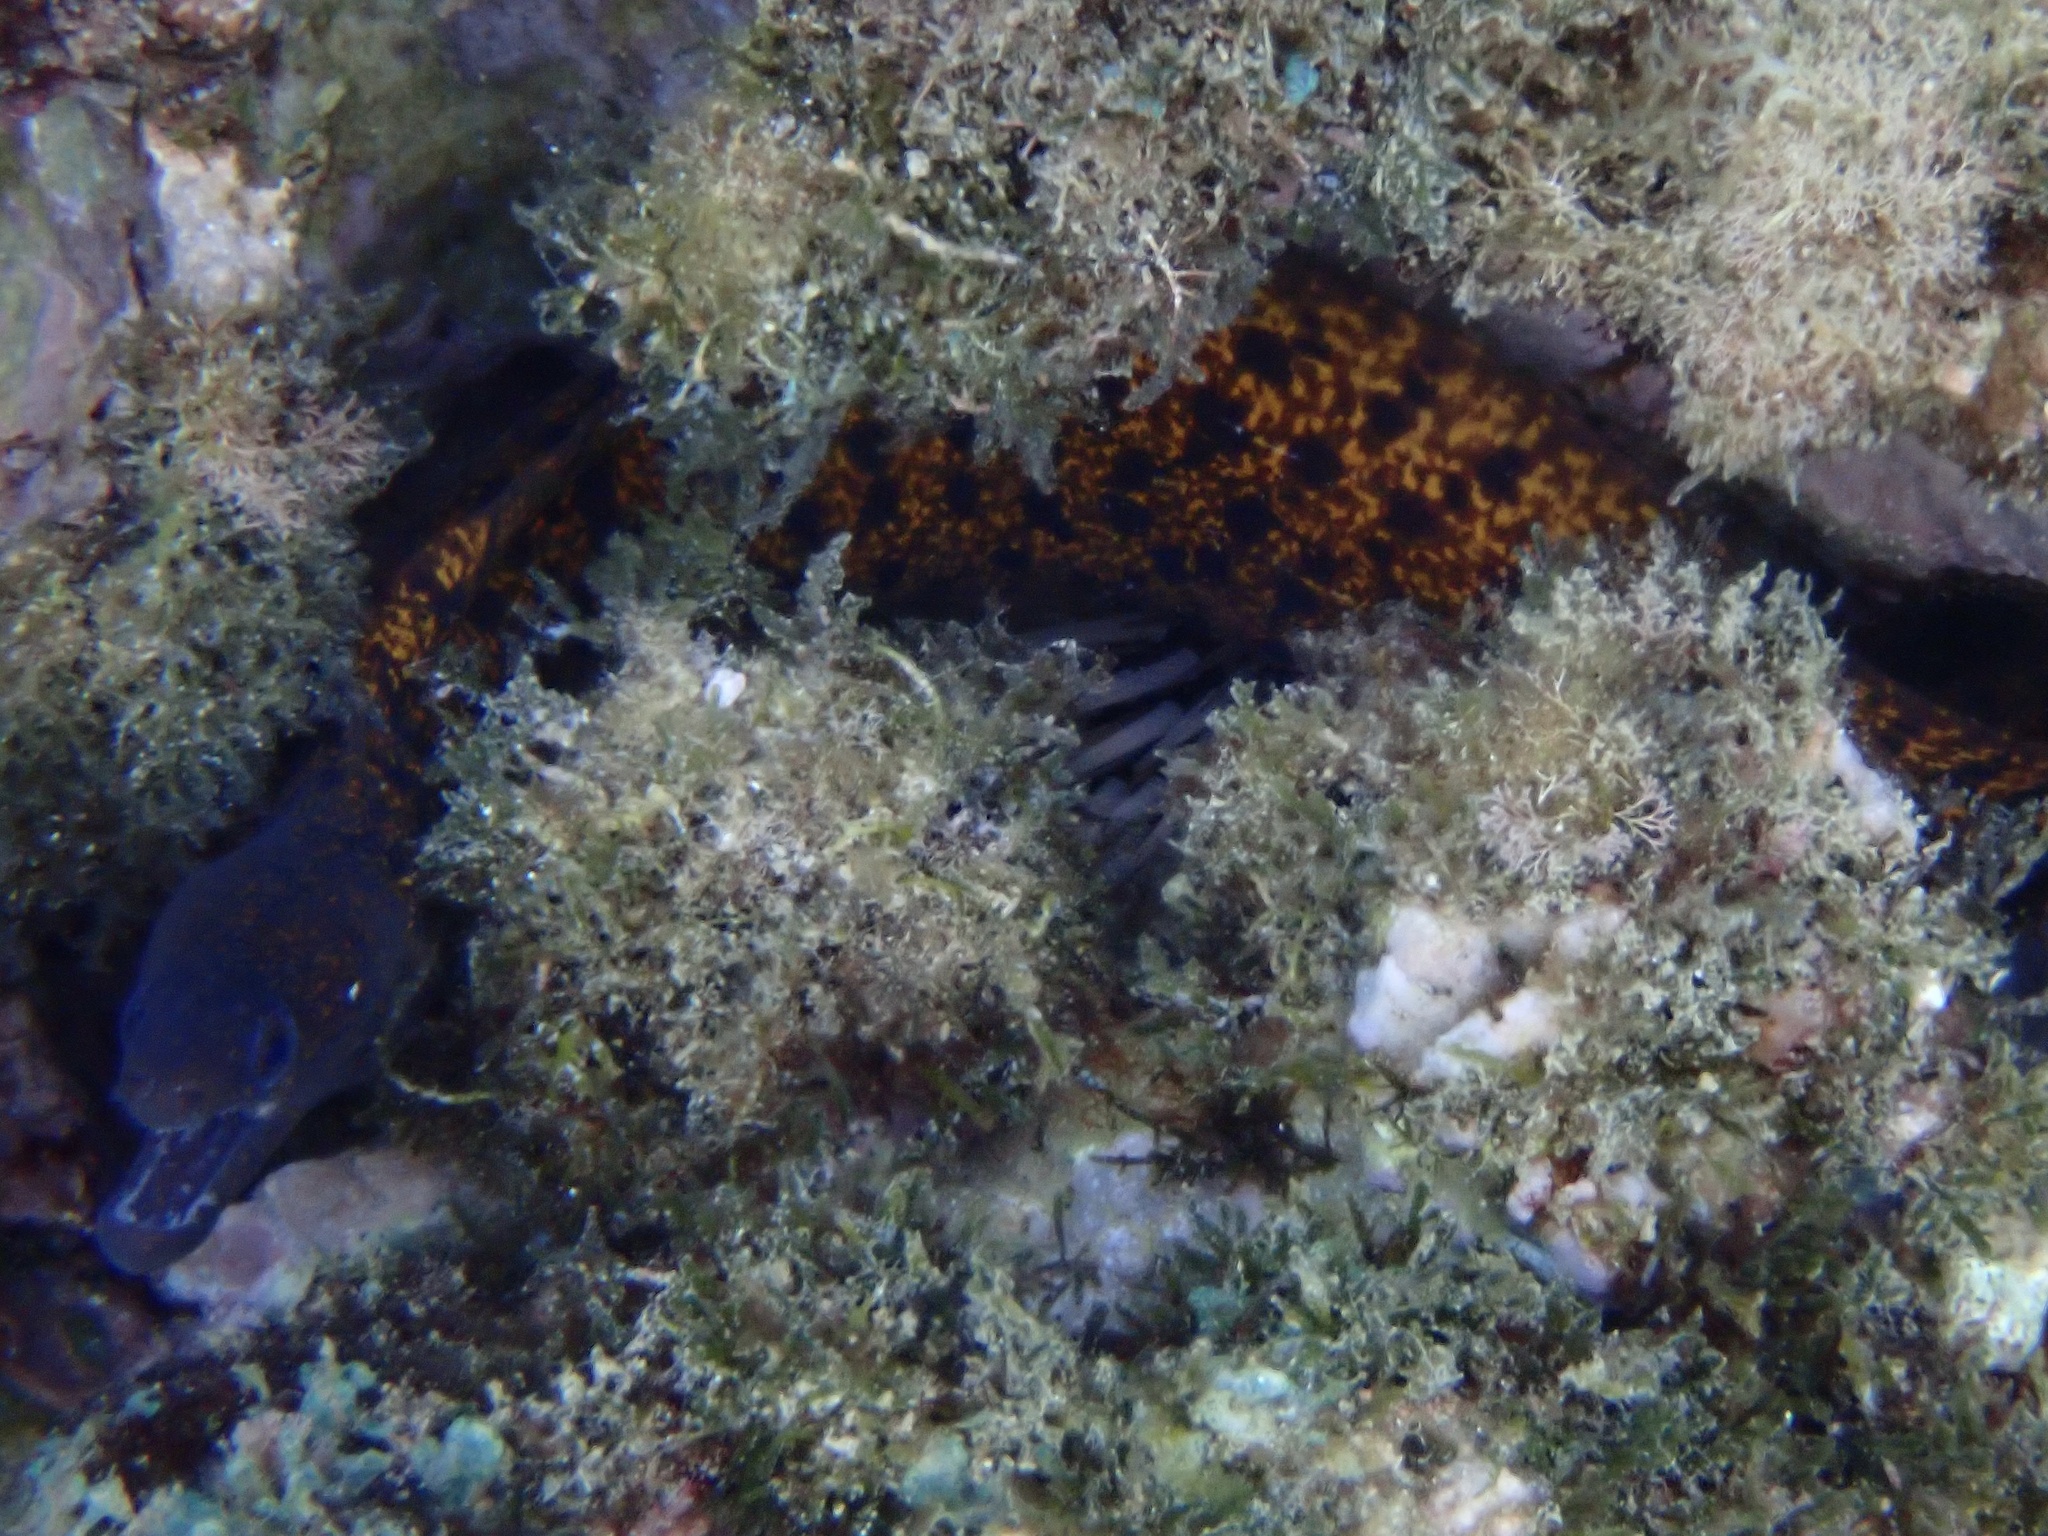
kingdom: Animalia
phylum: Chordata
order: Anguilliformes
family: Muraenidae
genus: Gymnothorax
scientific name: Gymnothorax eurostus
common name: Stout moray
